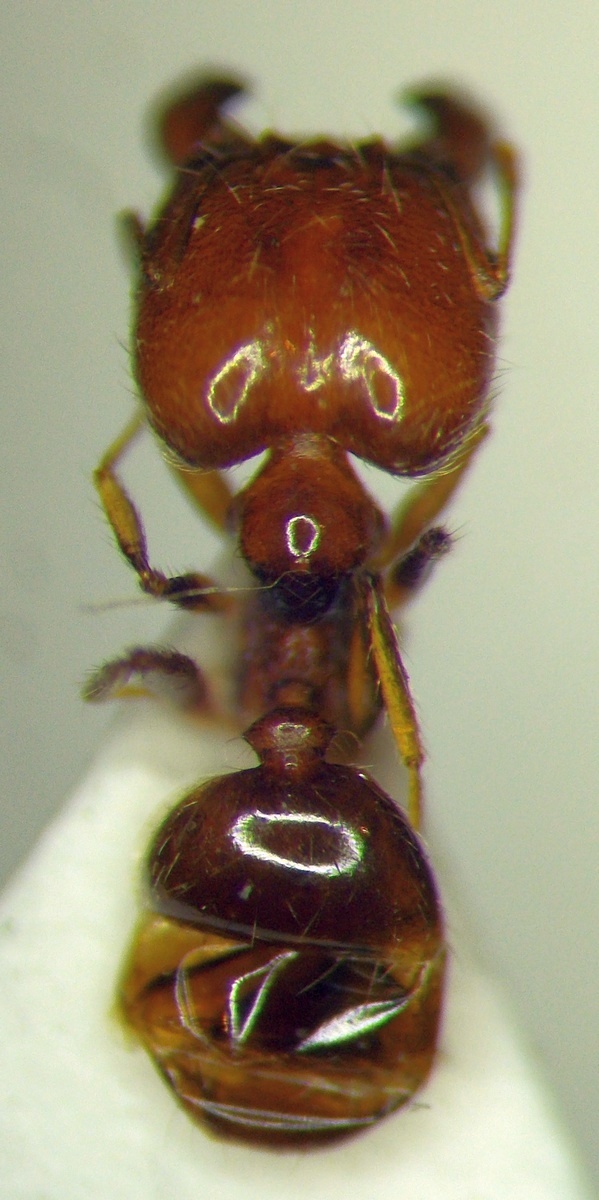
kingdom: Animalia
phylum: Arthropoda
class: Insecta
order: Hymenoptera
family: Formicidae
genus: Pheidole
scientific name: Pheidole pallidula
